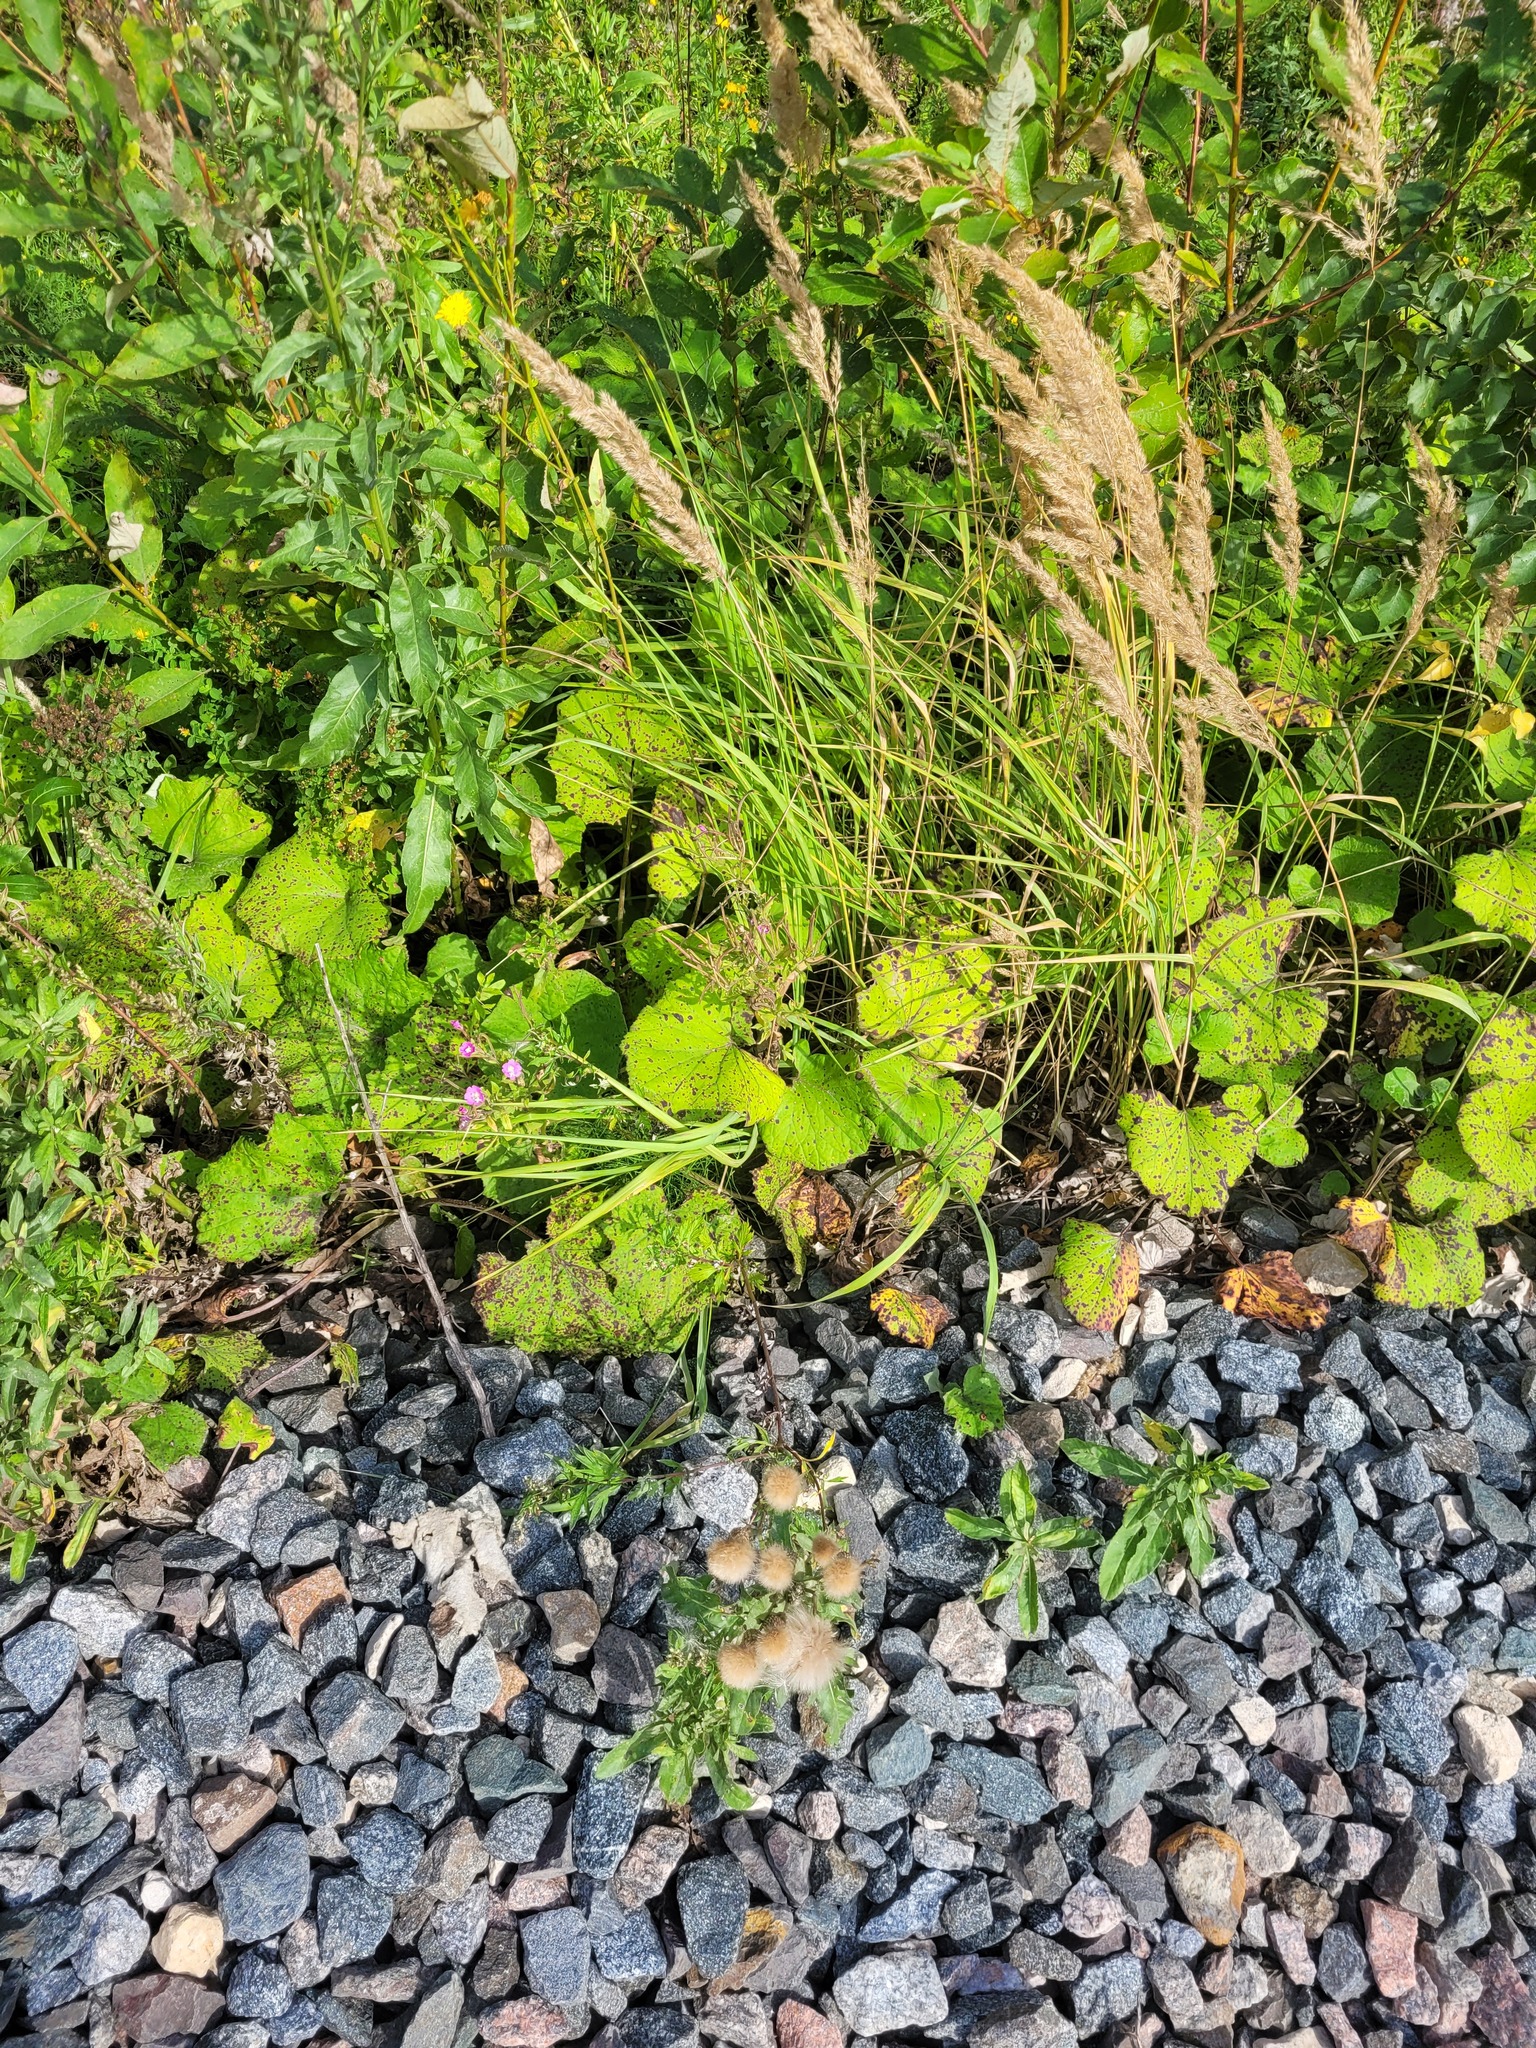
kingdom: Plantae
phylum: Tracheophyta
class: Magnoliopsida
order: Myrtales
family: Onagraceae
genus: Epilobium
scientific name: Epilobium hirsutum
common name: Great willowherb
